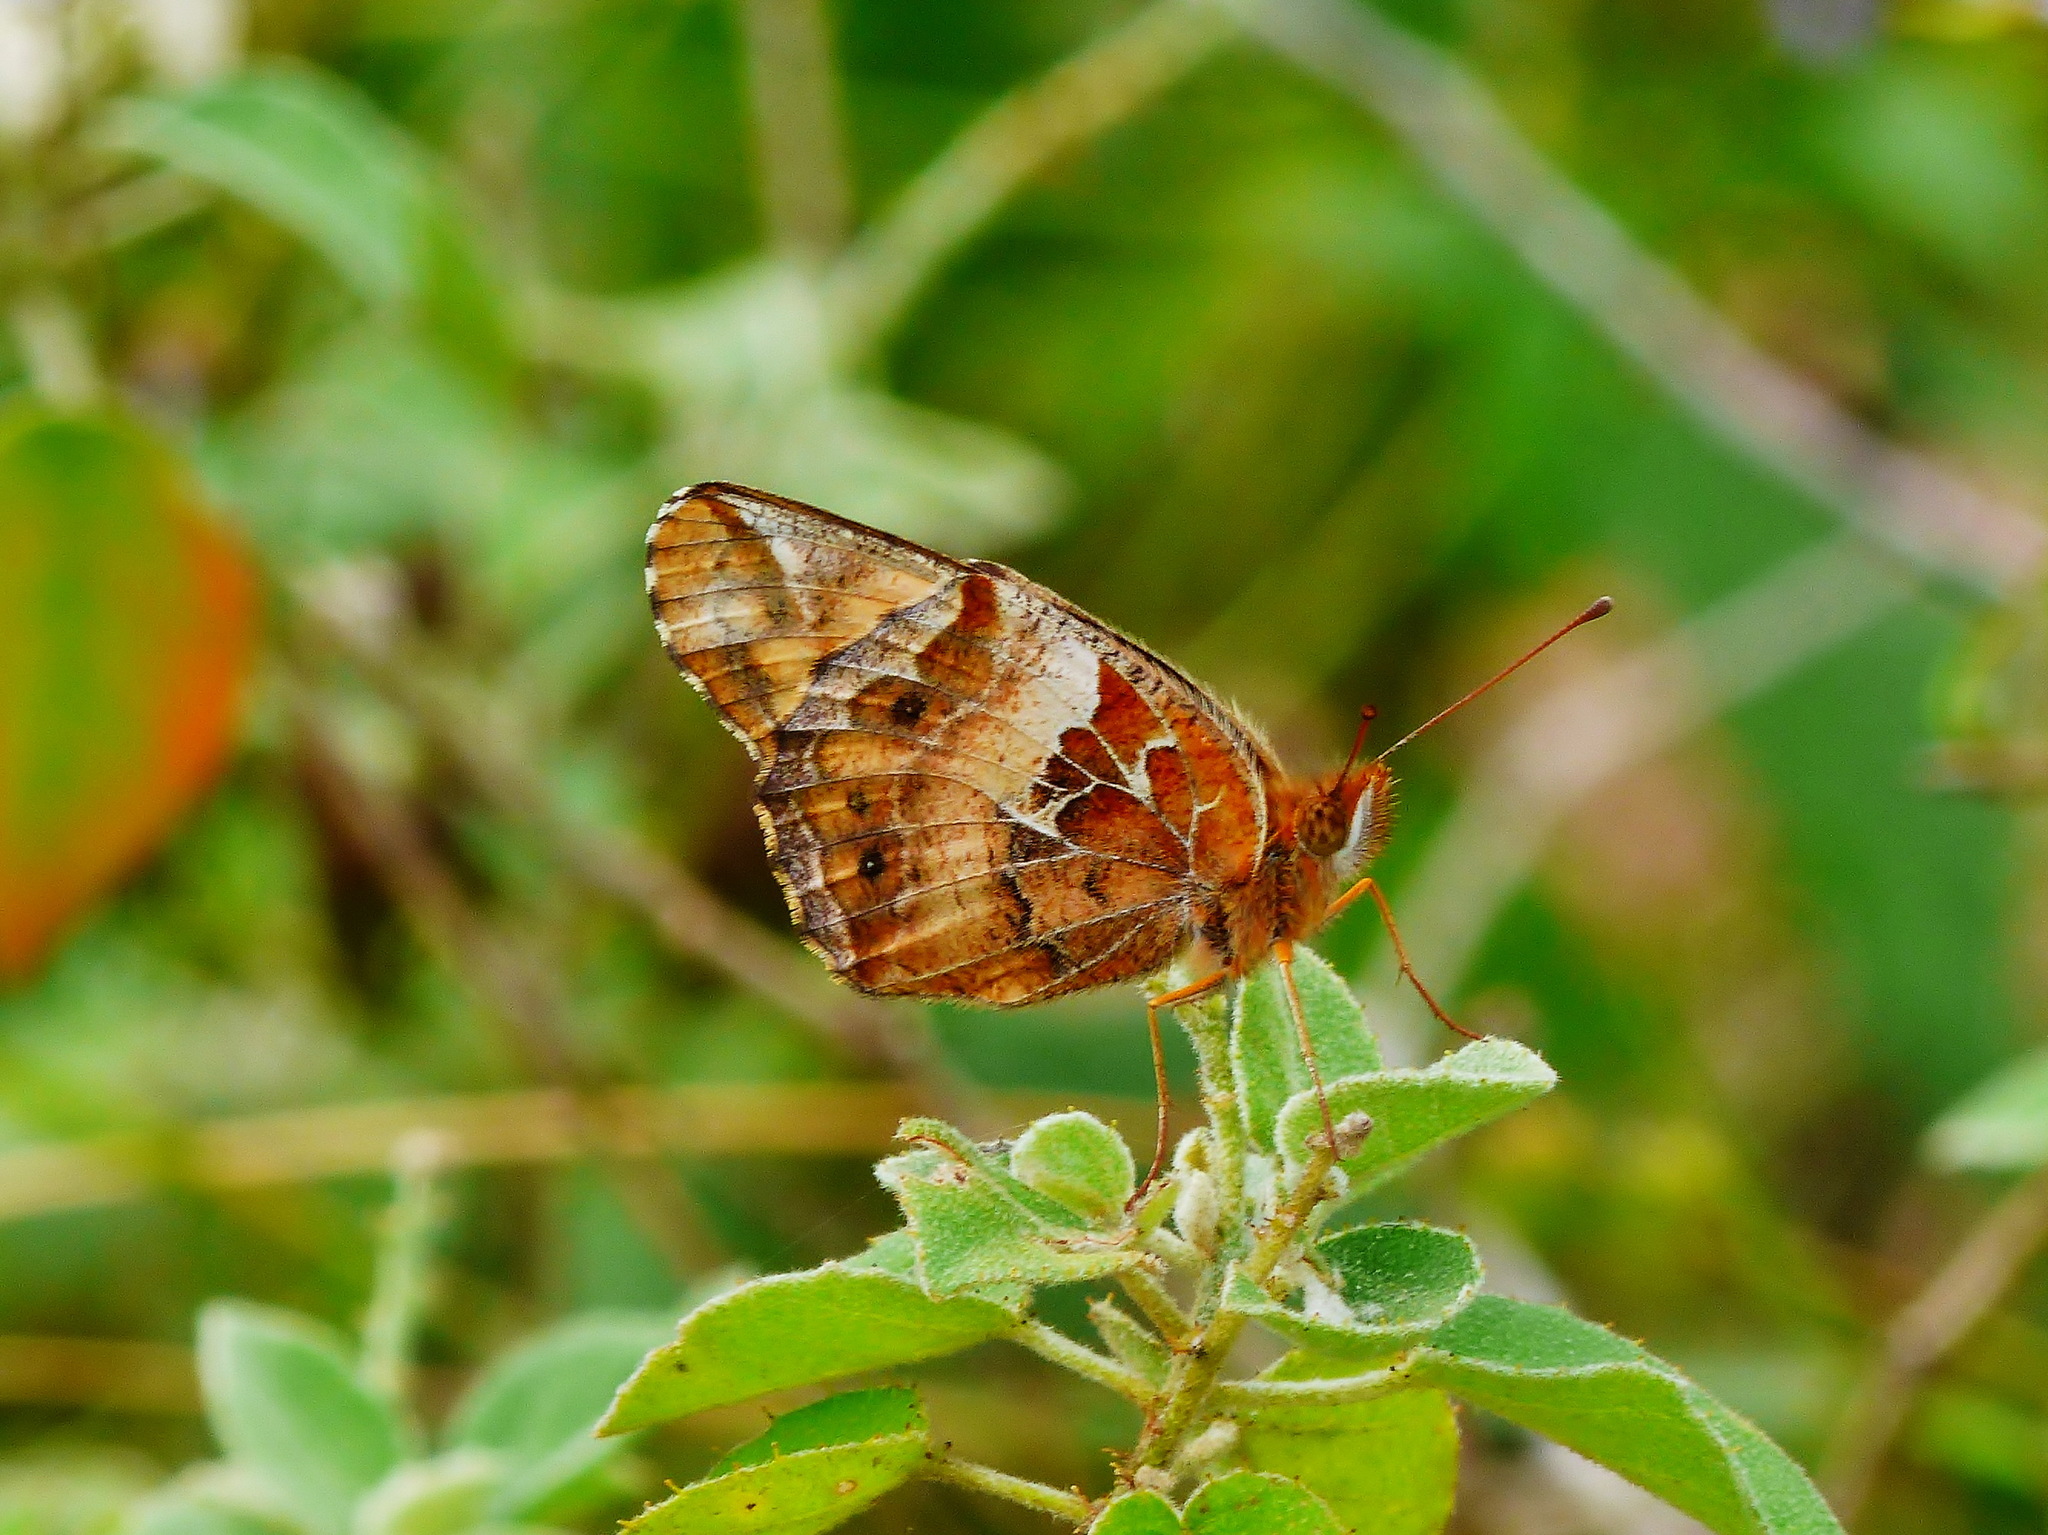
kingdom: Animalia
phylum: Arthropoda
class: Insecta
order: Lepidoptera
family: Nymphalidae
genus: Euptoieta
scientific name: Euptoieta claudia
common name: Variegated fritillary
